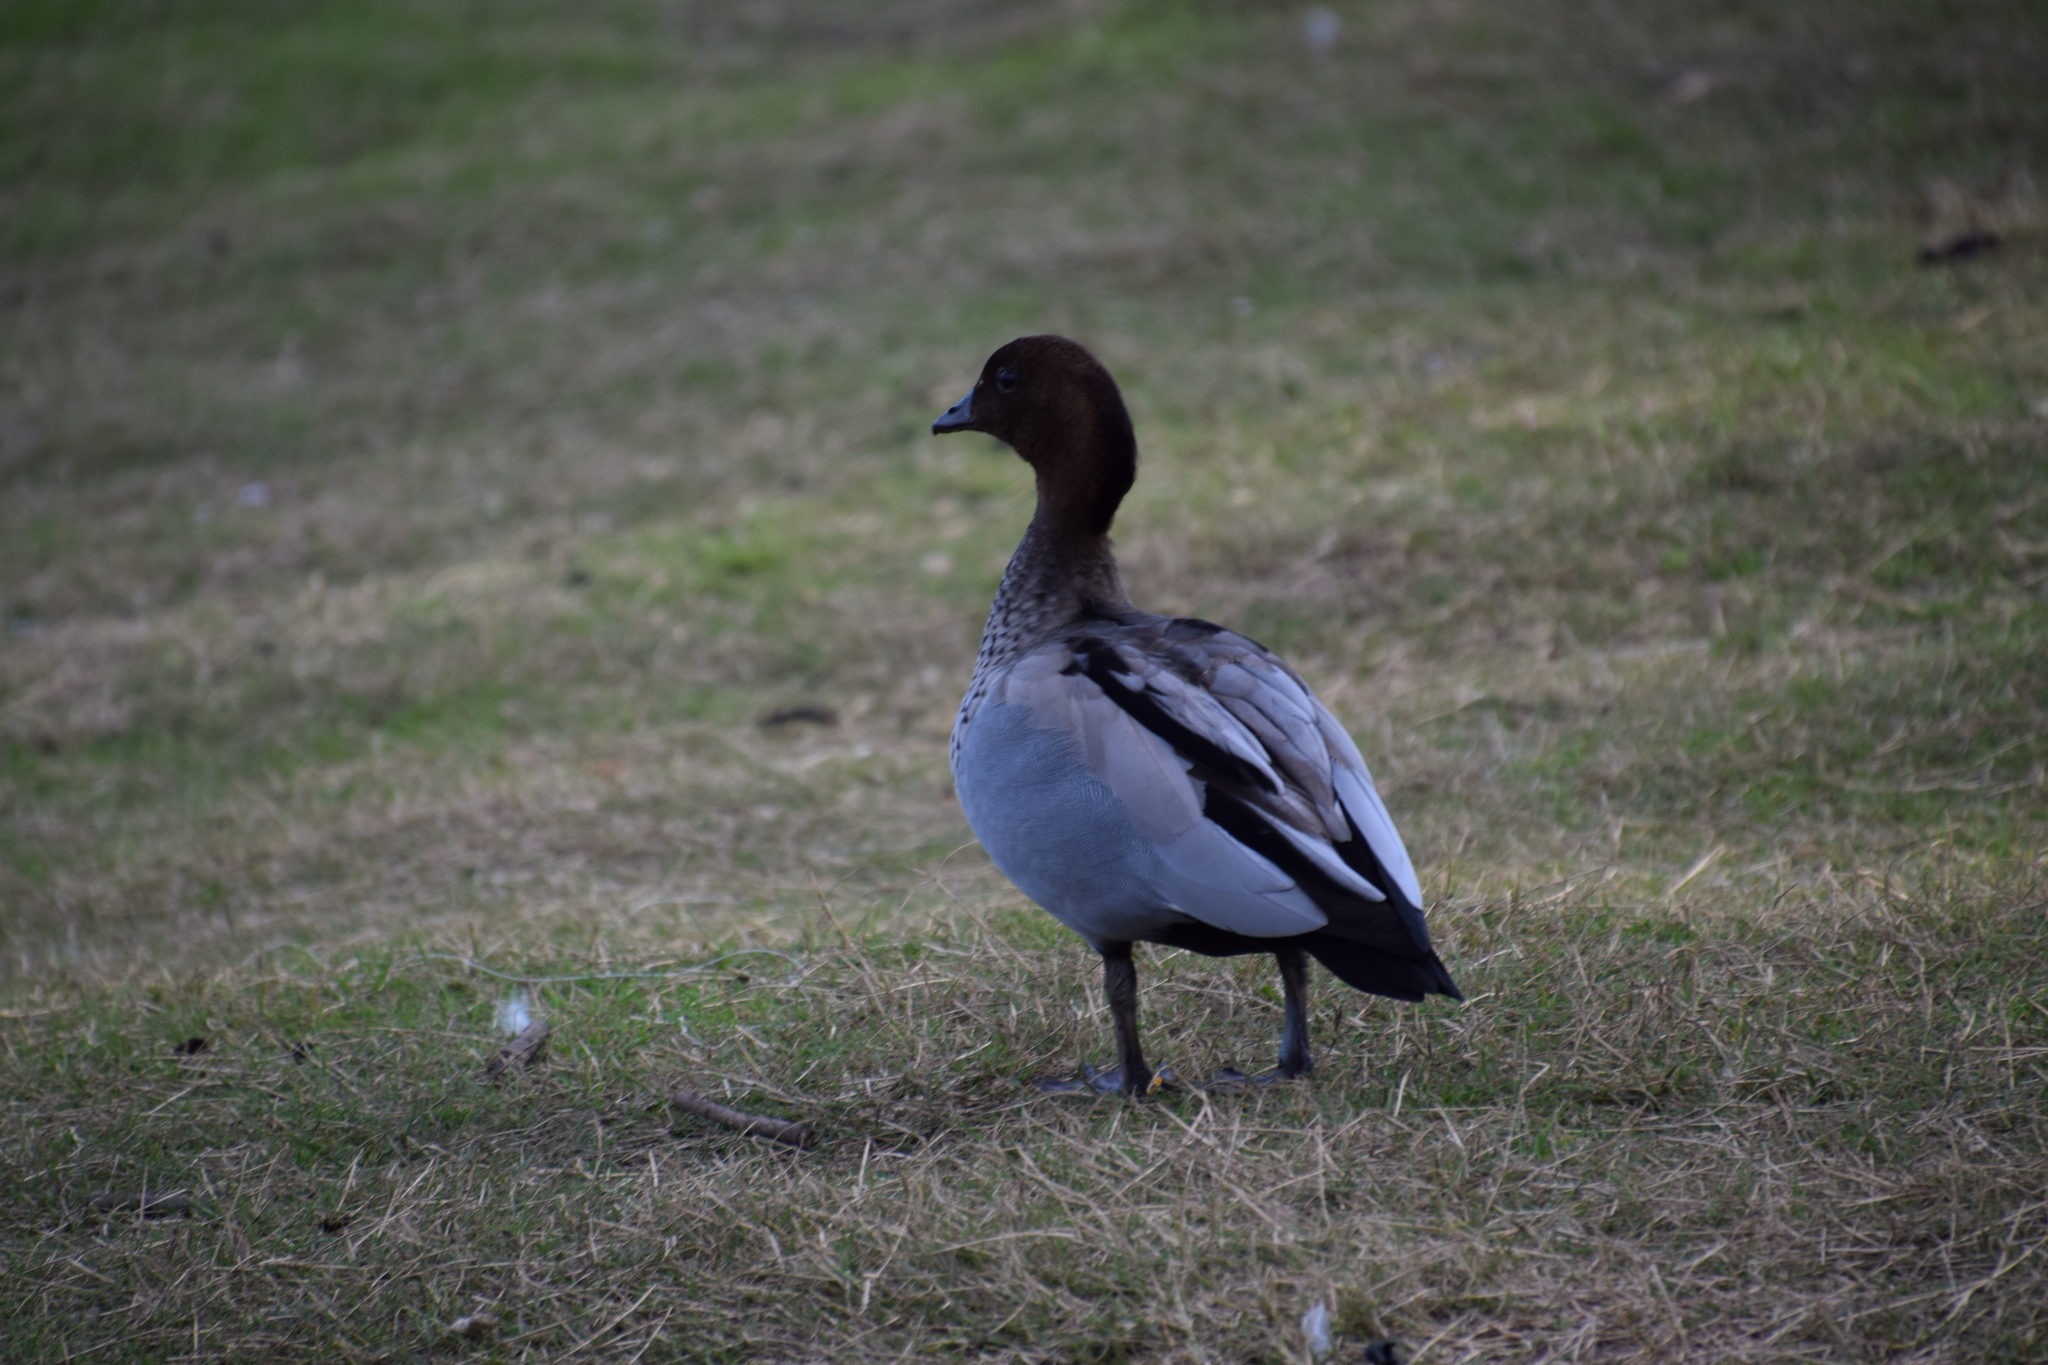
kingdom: Animalia
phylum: Chordata
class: Aves
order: Anseriformes
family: Anatidae
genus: Chenonetta
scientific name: Chenonetta jubata
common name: Maned duck
